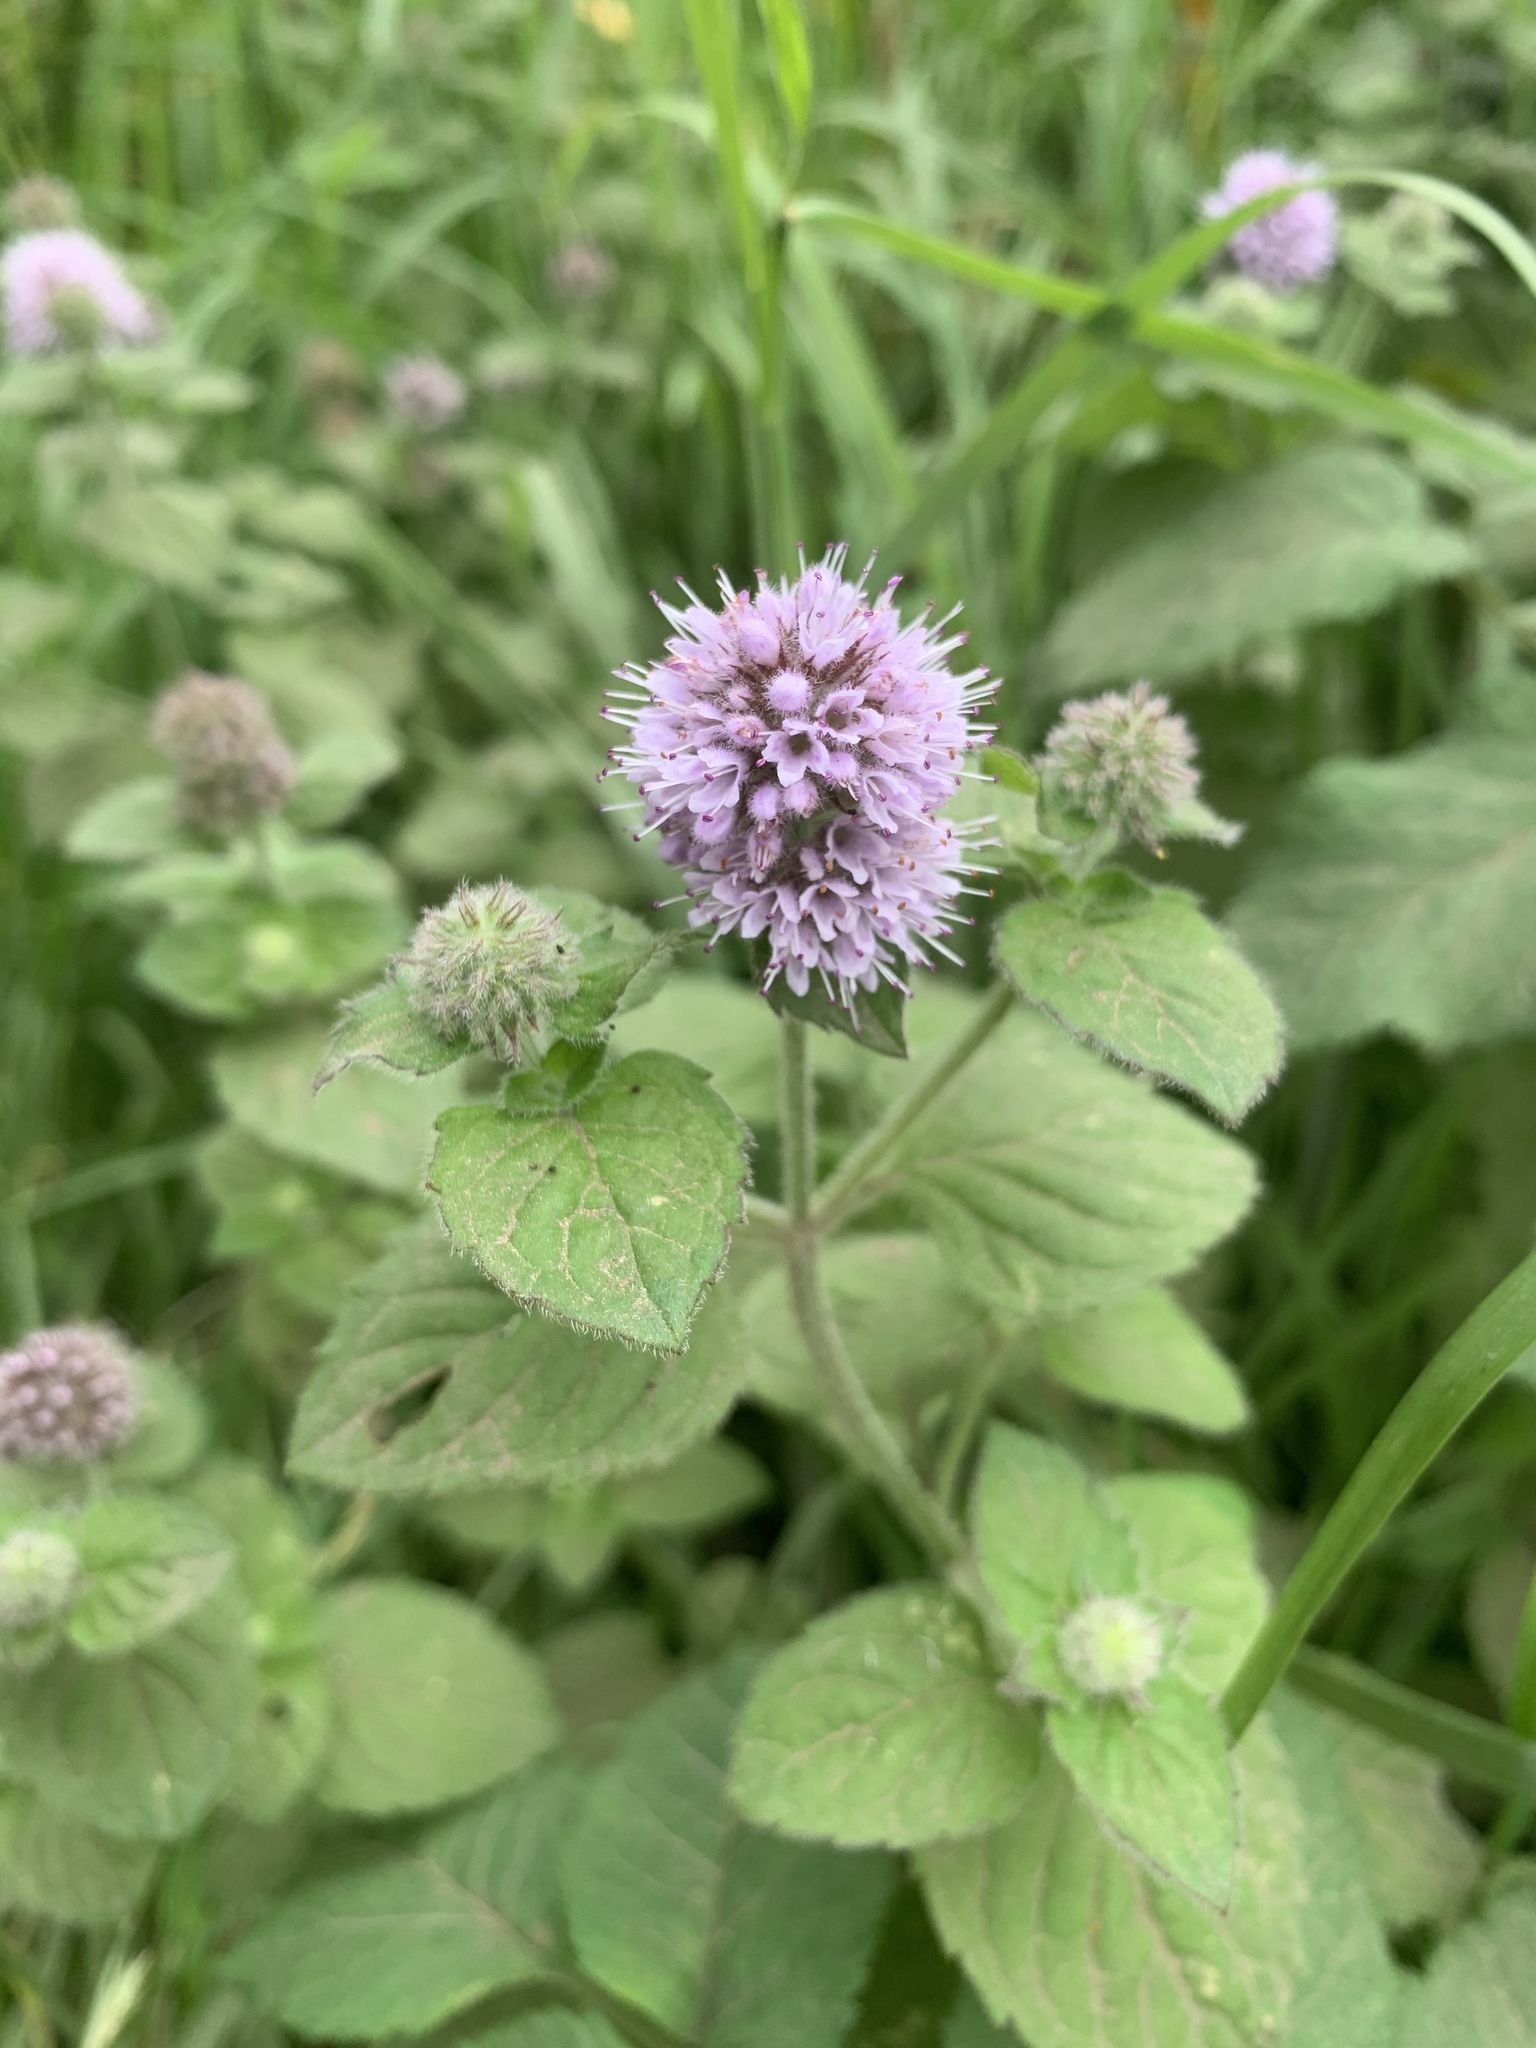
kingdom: Plantae
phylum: Tracheophyta
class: Magnoliopsida
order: Lamiales
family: Lamiaceae
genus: Mentha
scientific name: Mentha aquatica
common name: Water mint
